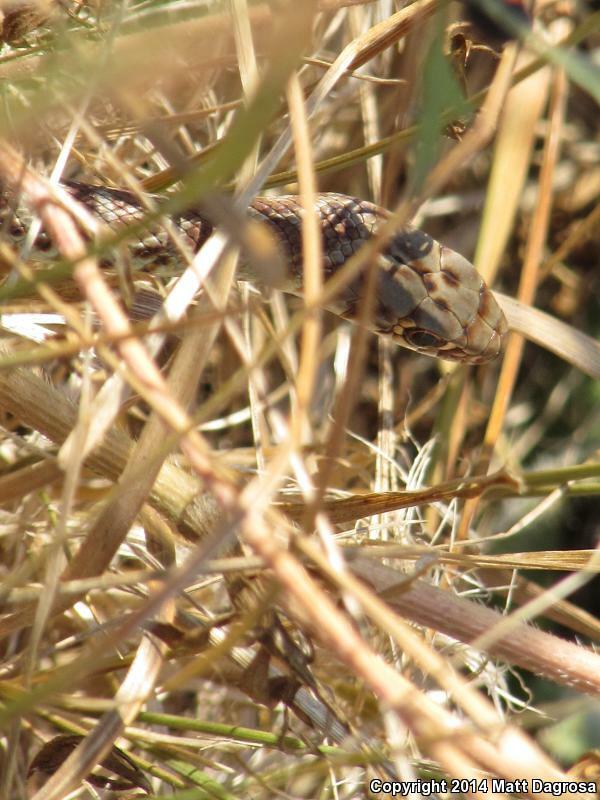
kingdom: Animalia
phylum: Chordata
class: Squamata
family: Colubridae
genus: Coluber
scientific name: Coluber constrictor
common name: Eastern racer
